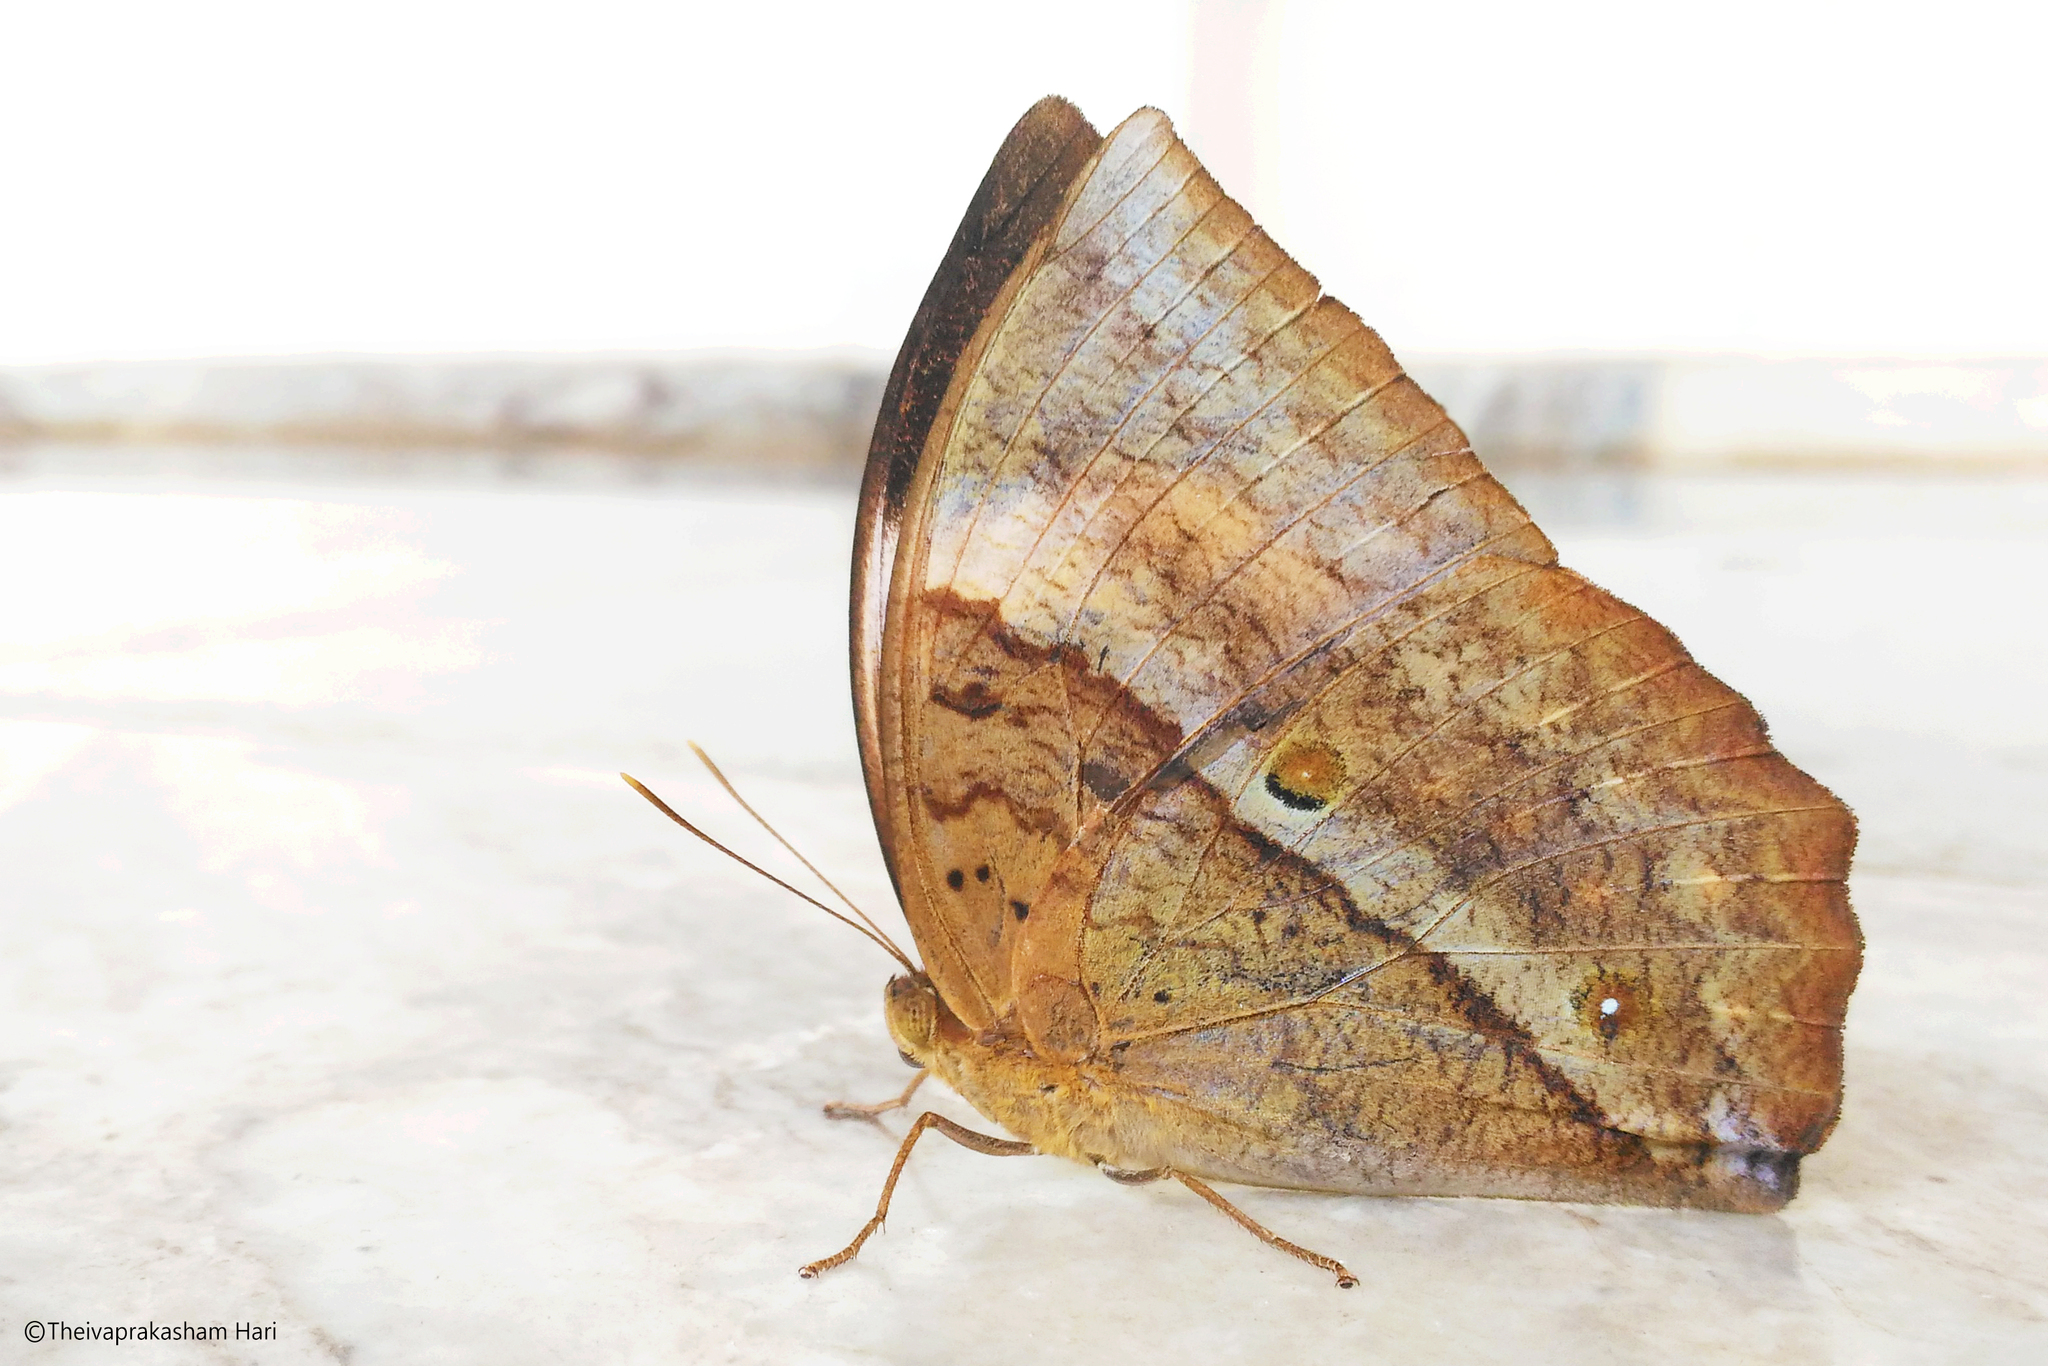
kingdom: Animalia
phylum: Arthropoda
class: Insecta
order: Lepidoptera
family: Nymphalidae
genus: Discophora
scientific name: Discophora lepida
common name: Southern duffer
